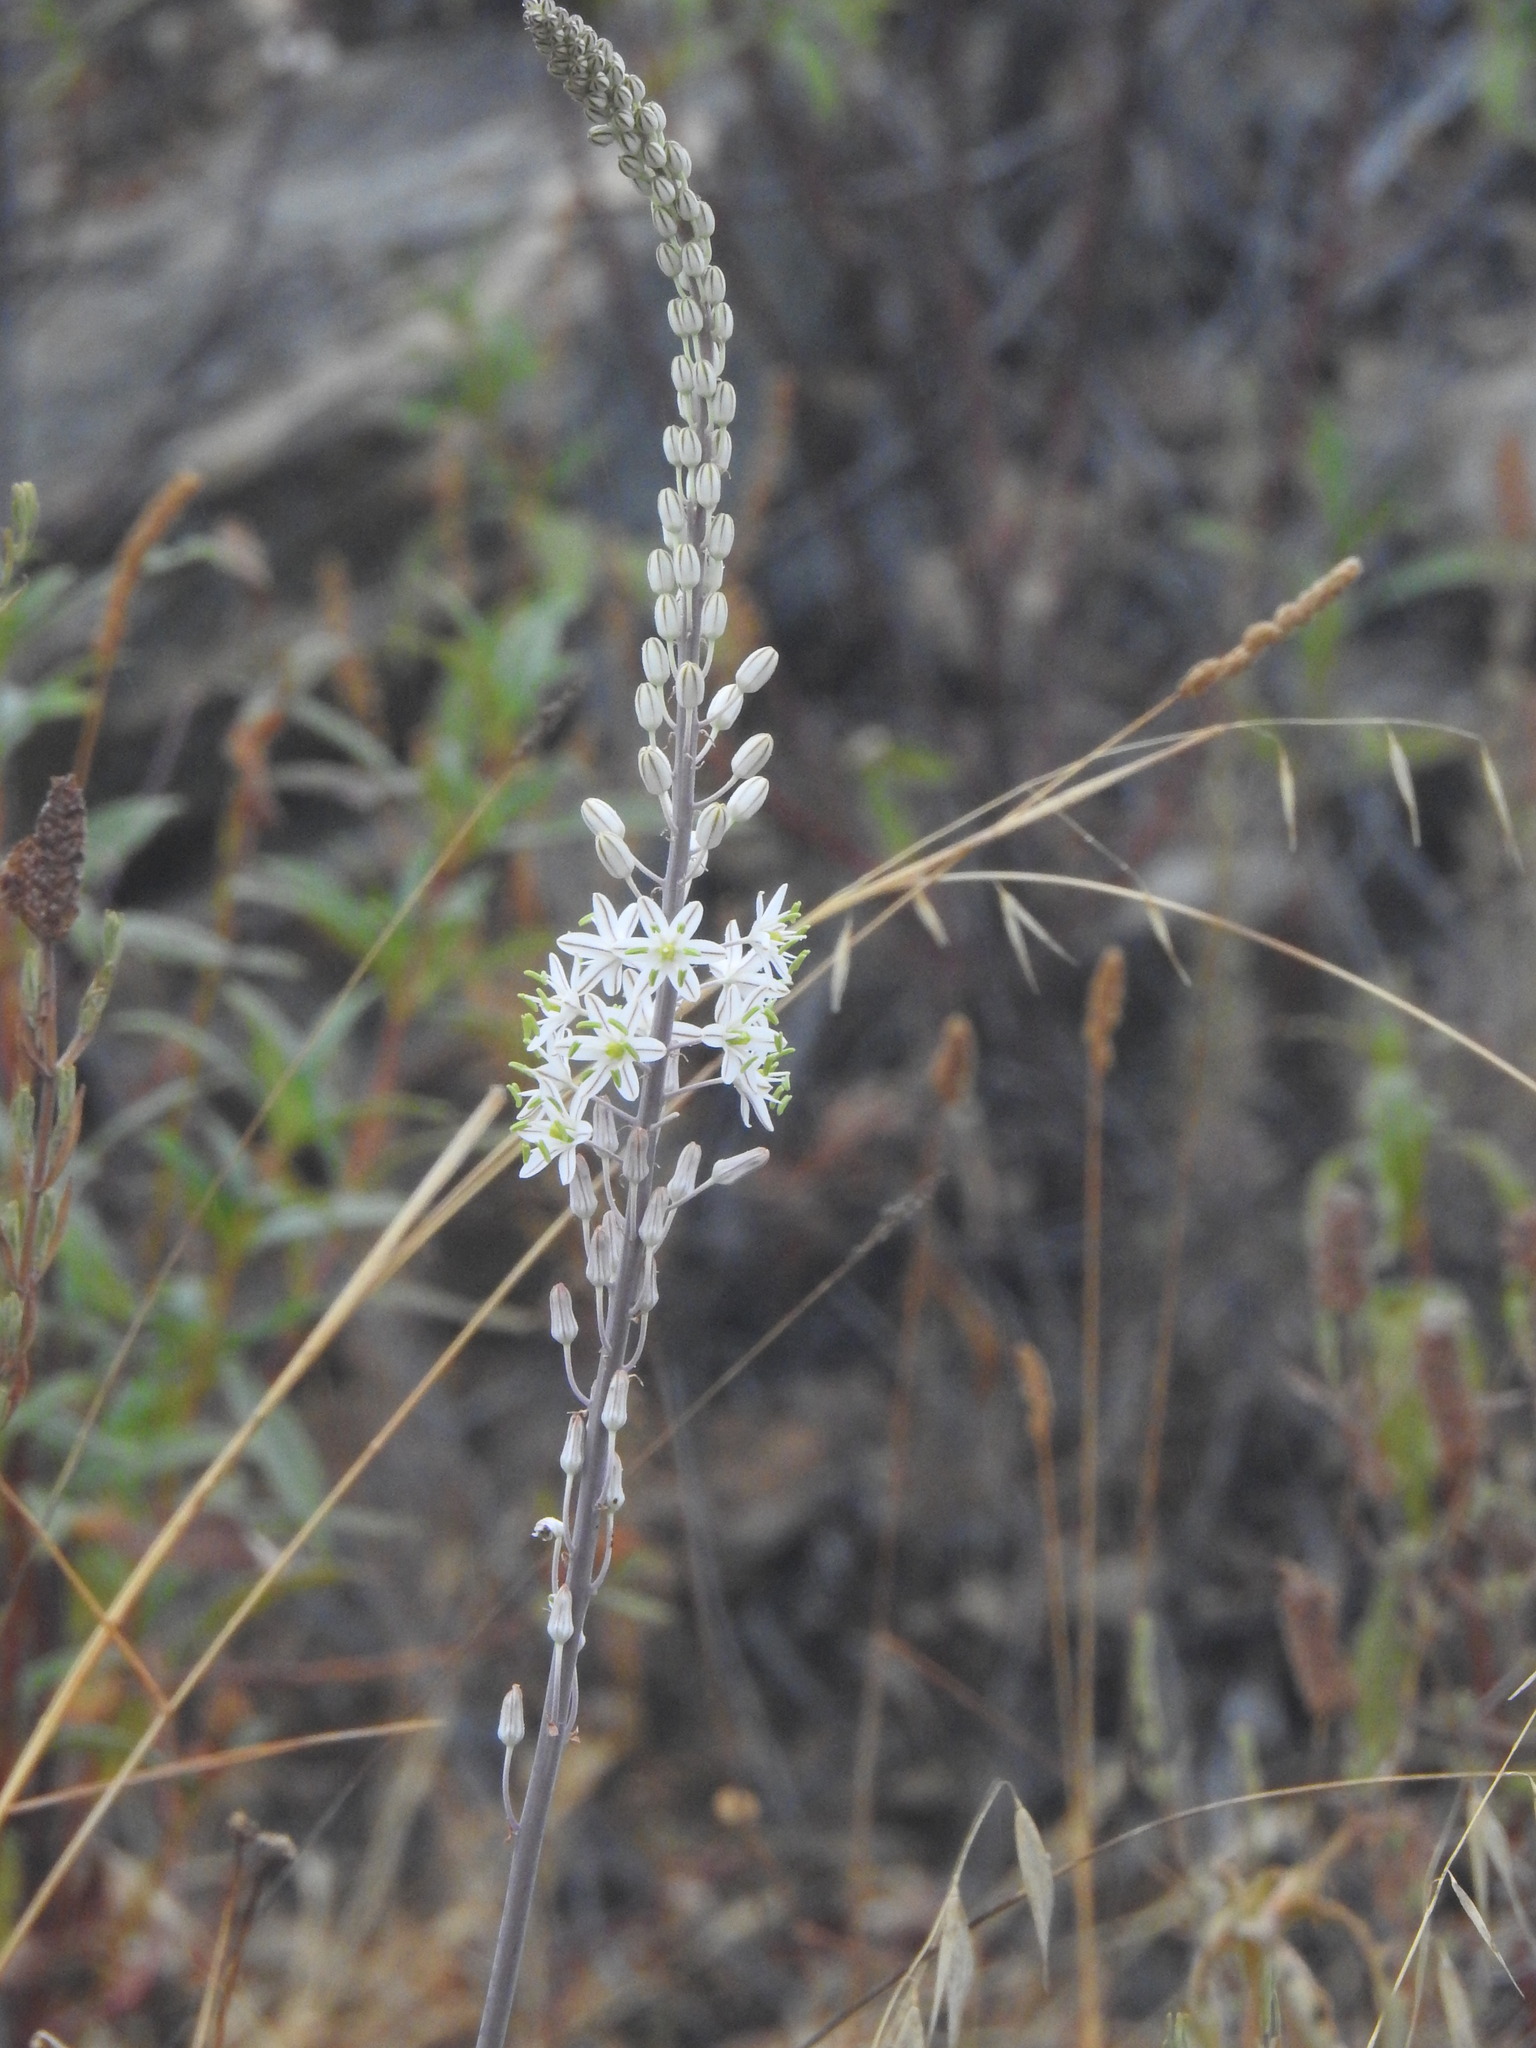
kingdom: Plantae
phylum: Tracheophyta
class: Liliopsida
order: Asparagales
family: Asparagaceae
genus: Drimia
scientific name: Drimia maritima
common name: Maritime squill
